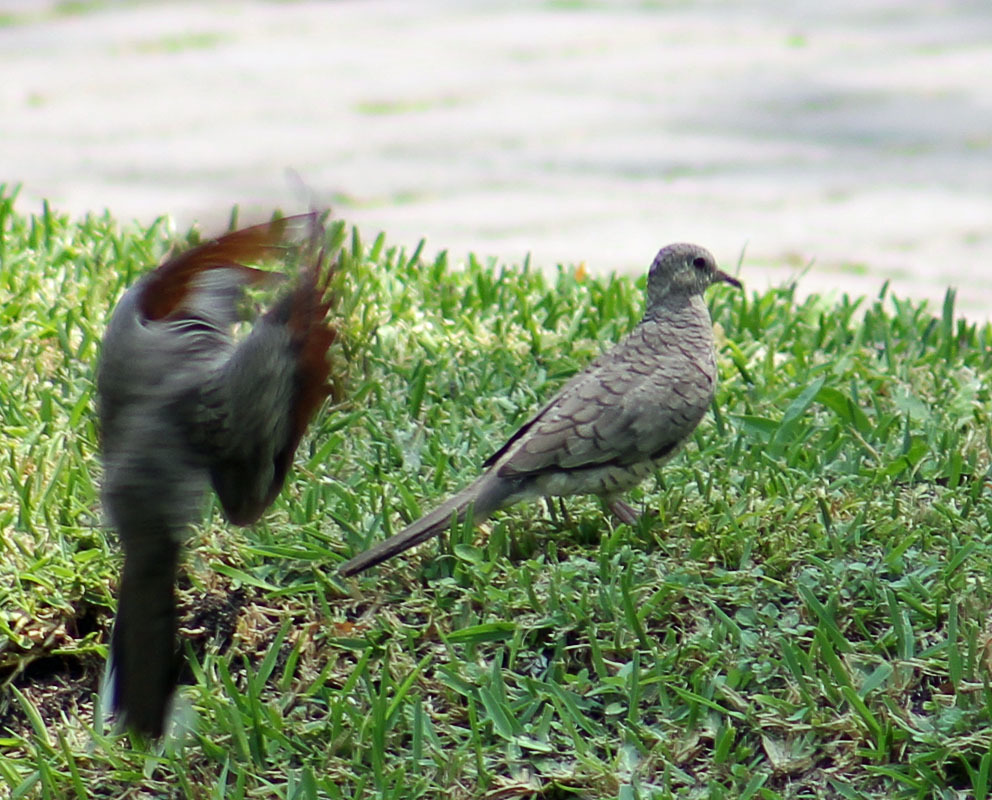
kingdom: Animalia
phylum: Chordata
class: Aves
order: Columbiformes
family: Columbidae
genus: Columbina
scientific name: Columbina inca
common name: Inca dove
